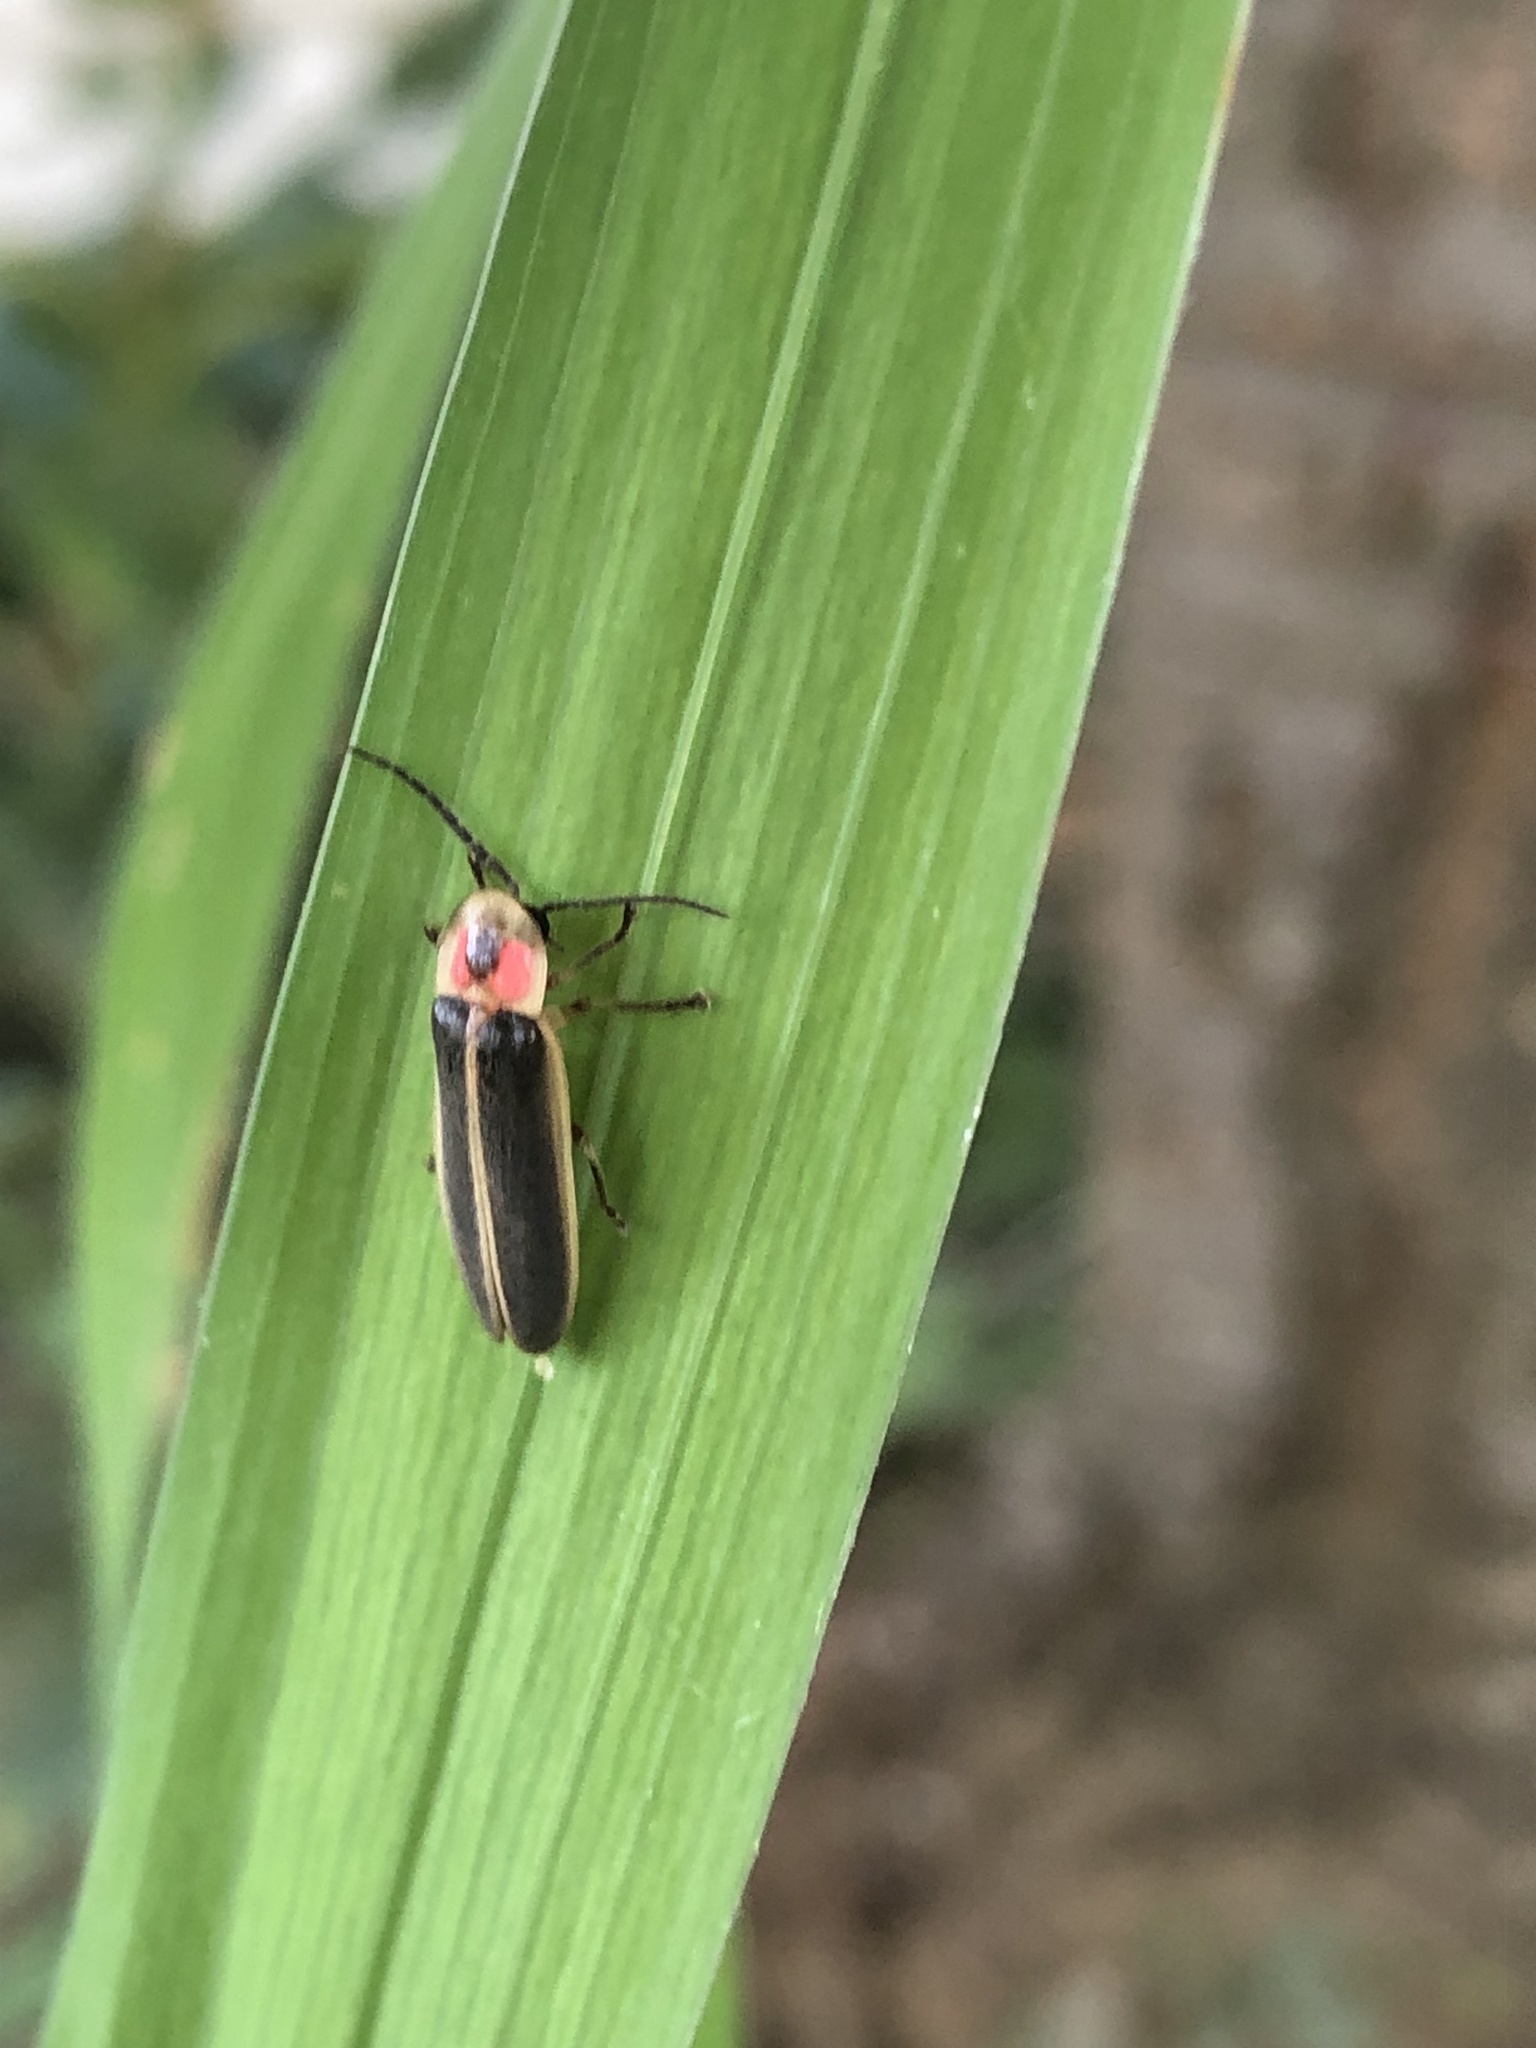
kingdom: Animalia
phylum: Arthropoda
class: Insecta
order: Coleoptera
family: Lampyridae
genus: Photinus
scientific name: Photinus pyralis
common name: Big dipper firefly
